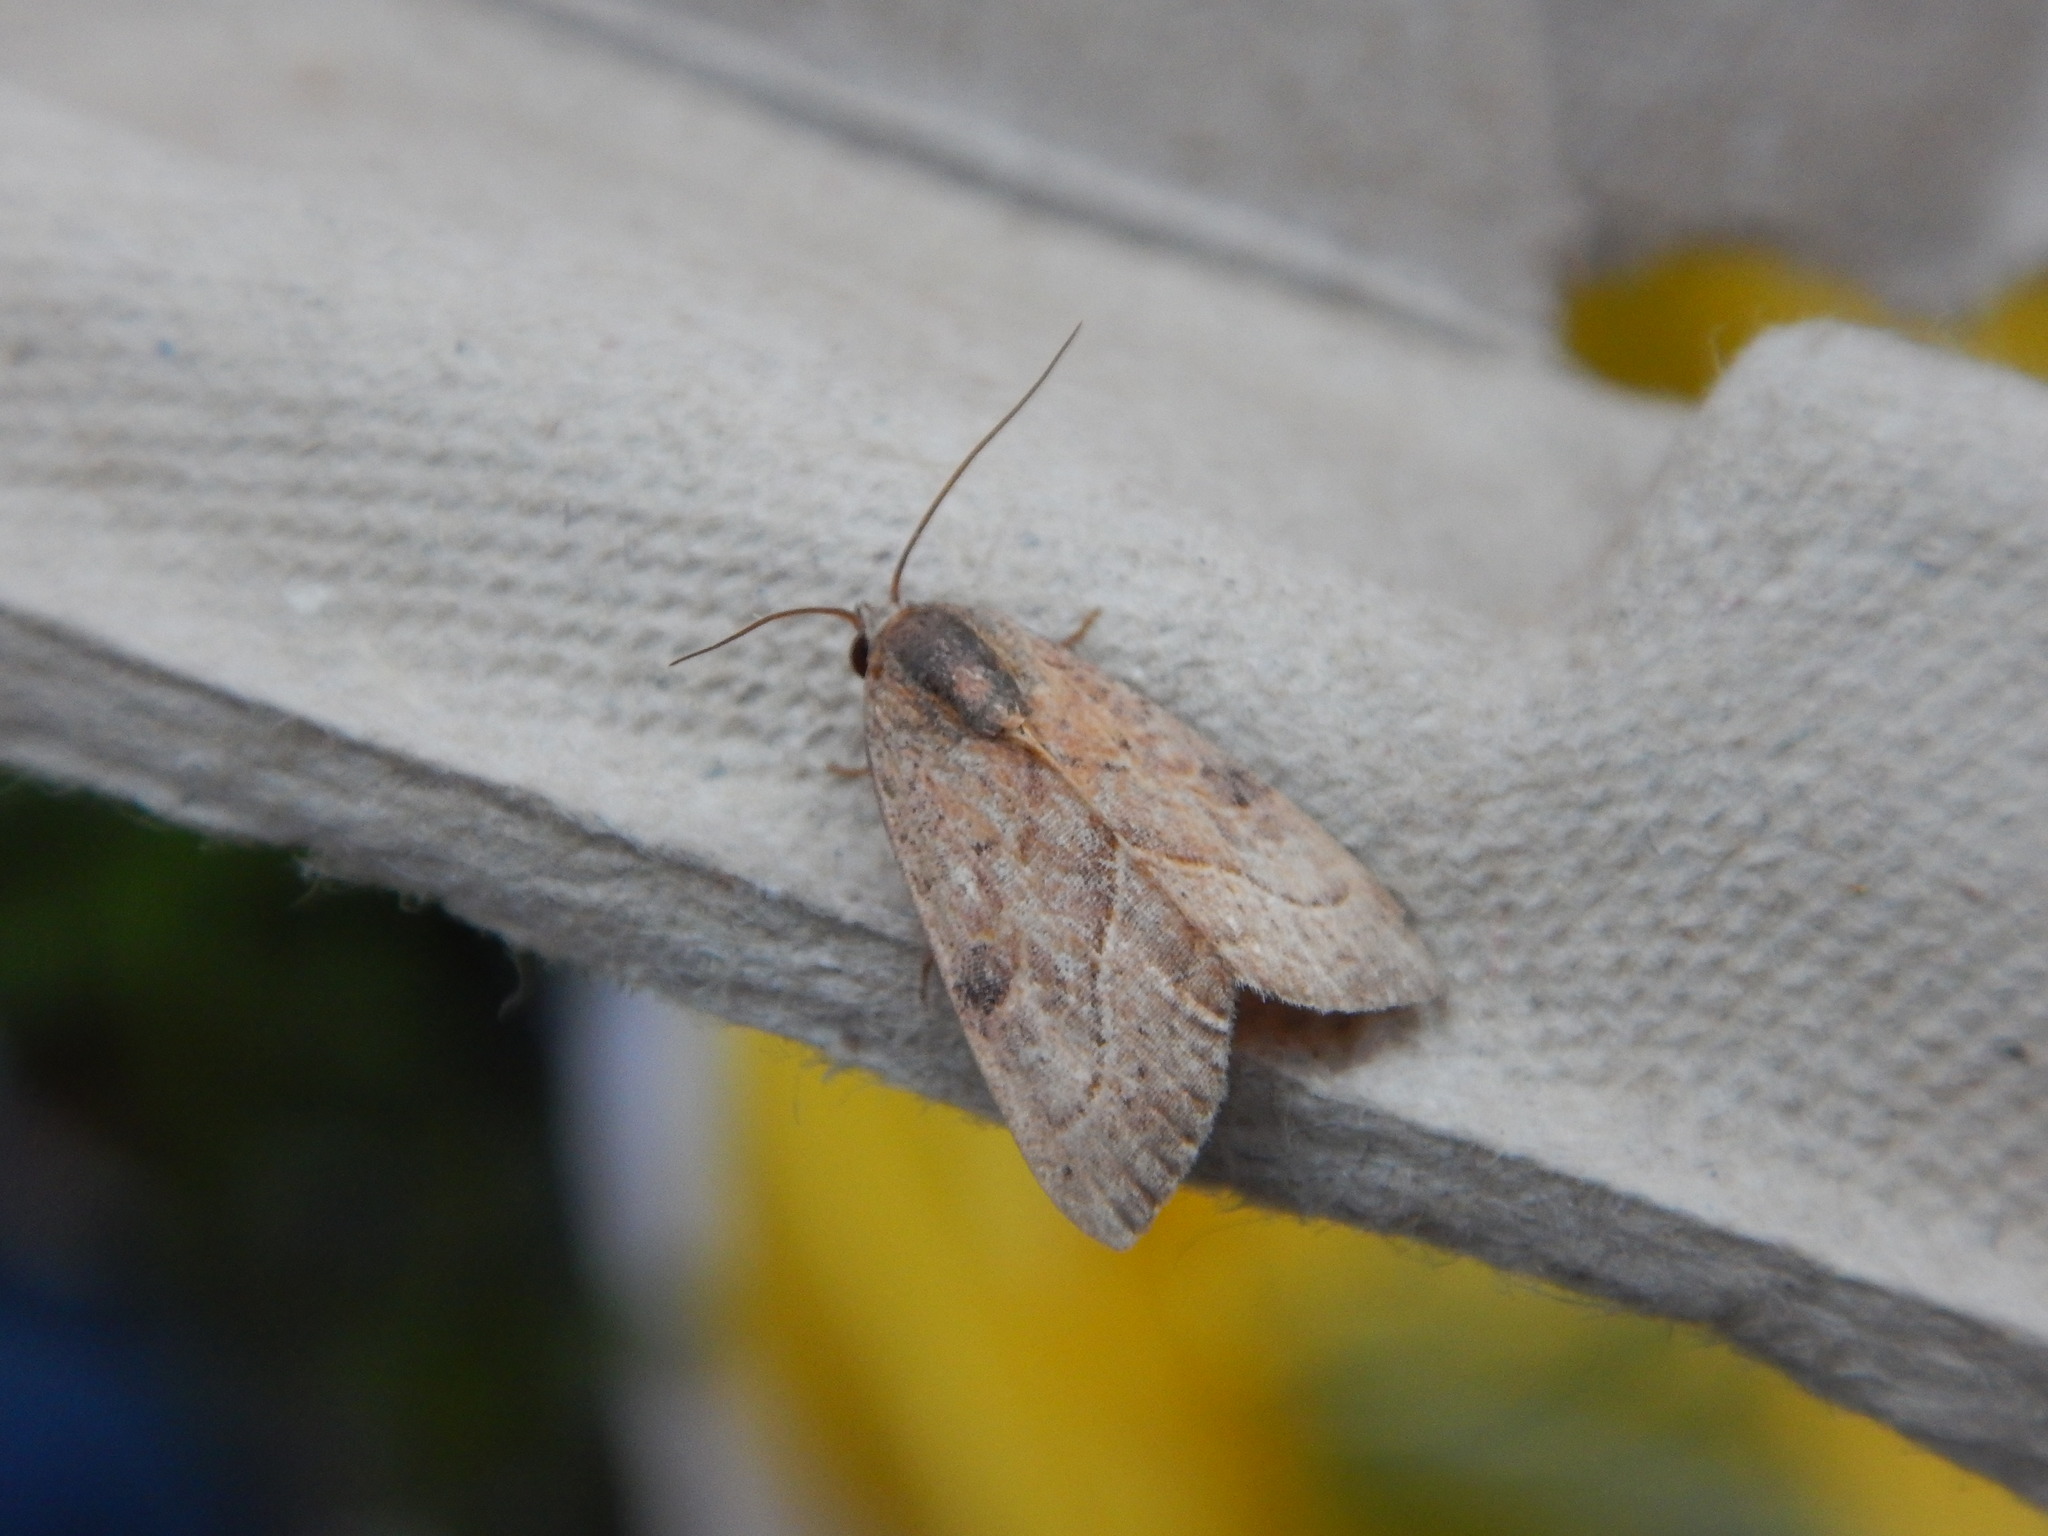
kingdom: Animalia
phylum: Arthropoda
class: Insecta
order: Lepidoptera
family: Noctuidae
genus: Galgula
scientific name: Galgula partita
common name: Wedgeling
